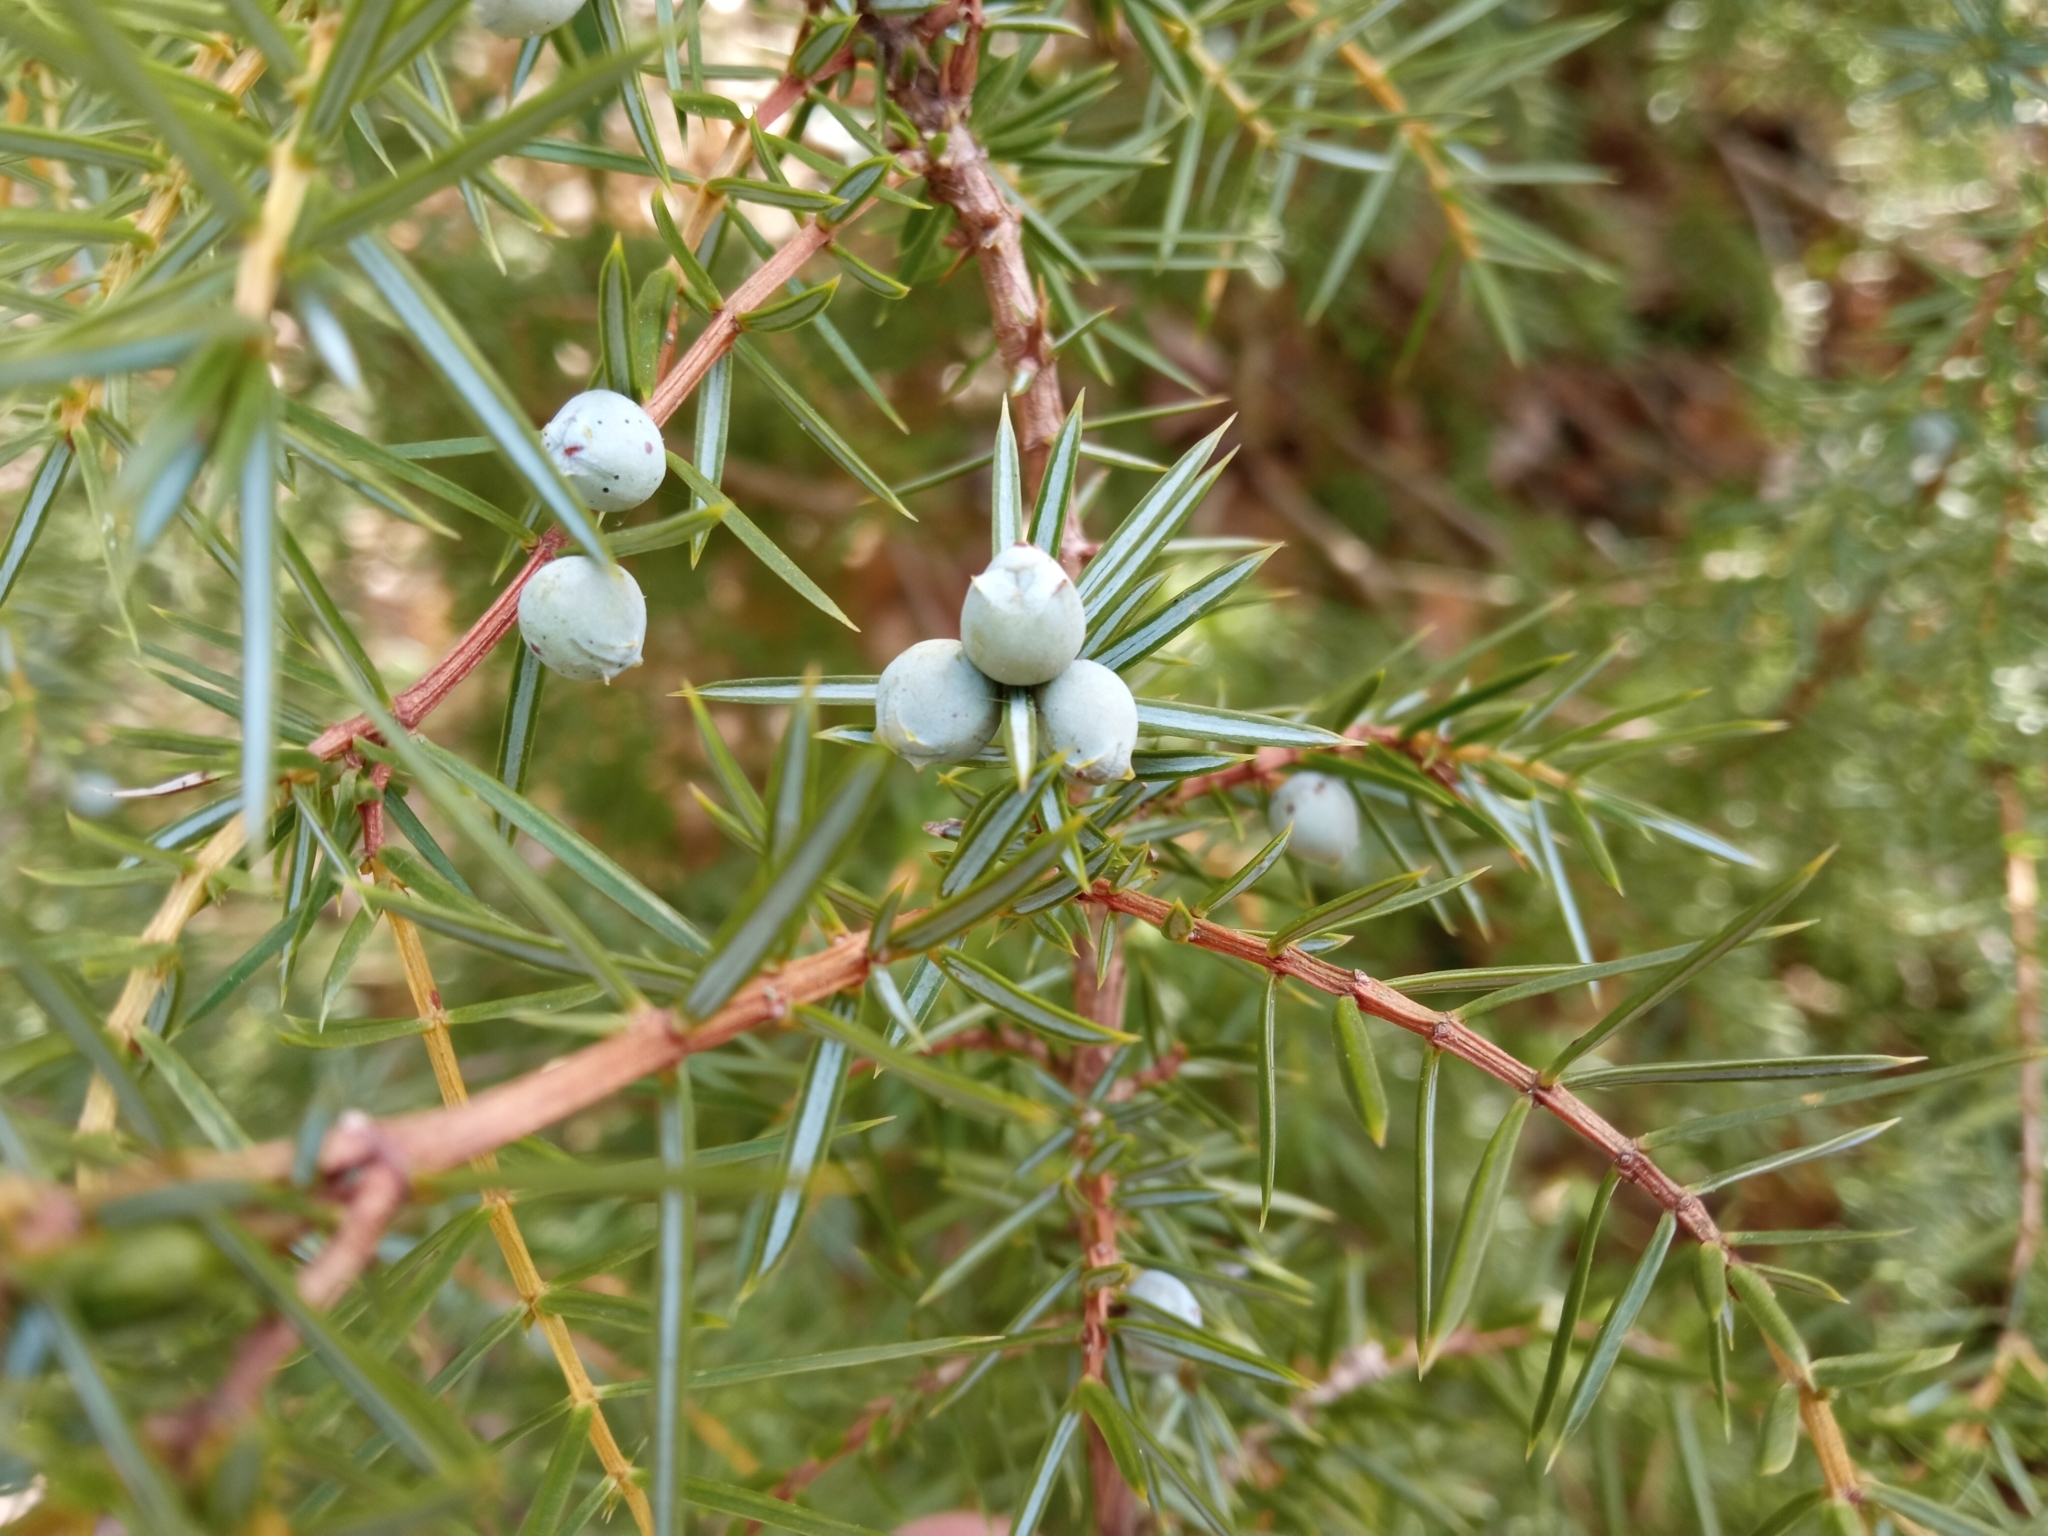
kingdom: Plantae
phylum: Tracheophyta
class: Pinopsida
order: Pinales
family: Cupressaceae
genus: Juniperus
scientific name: Juniperus communis
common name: Common juniper
